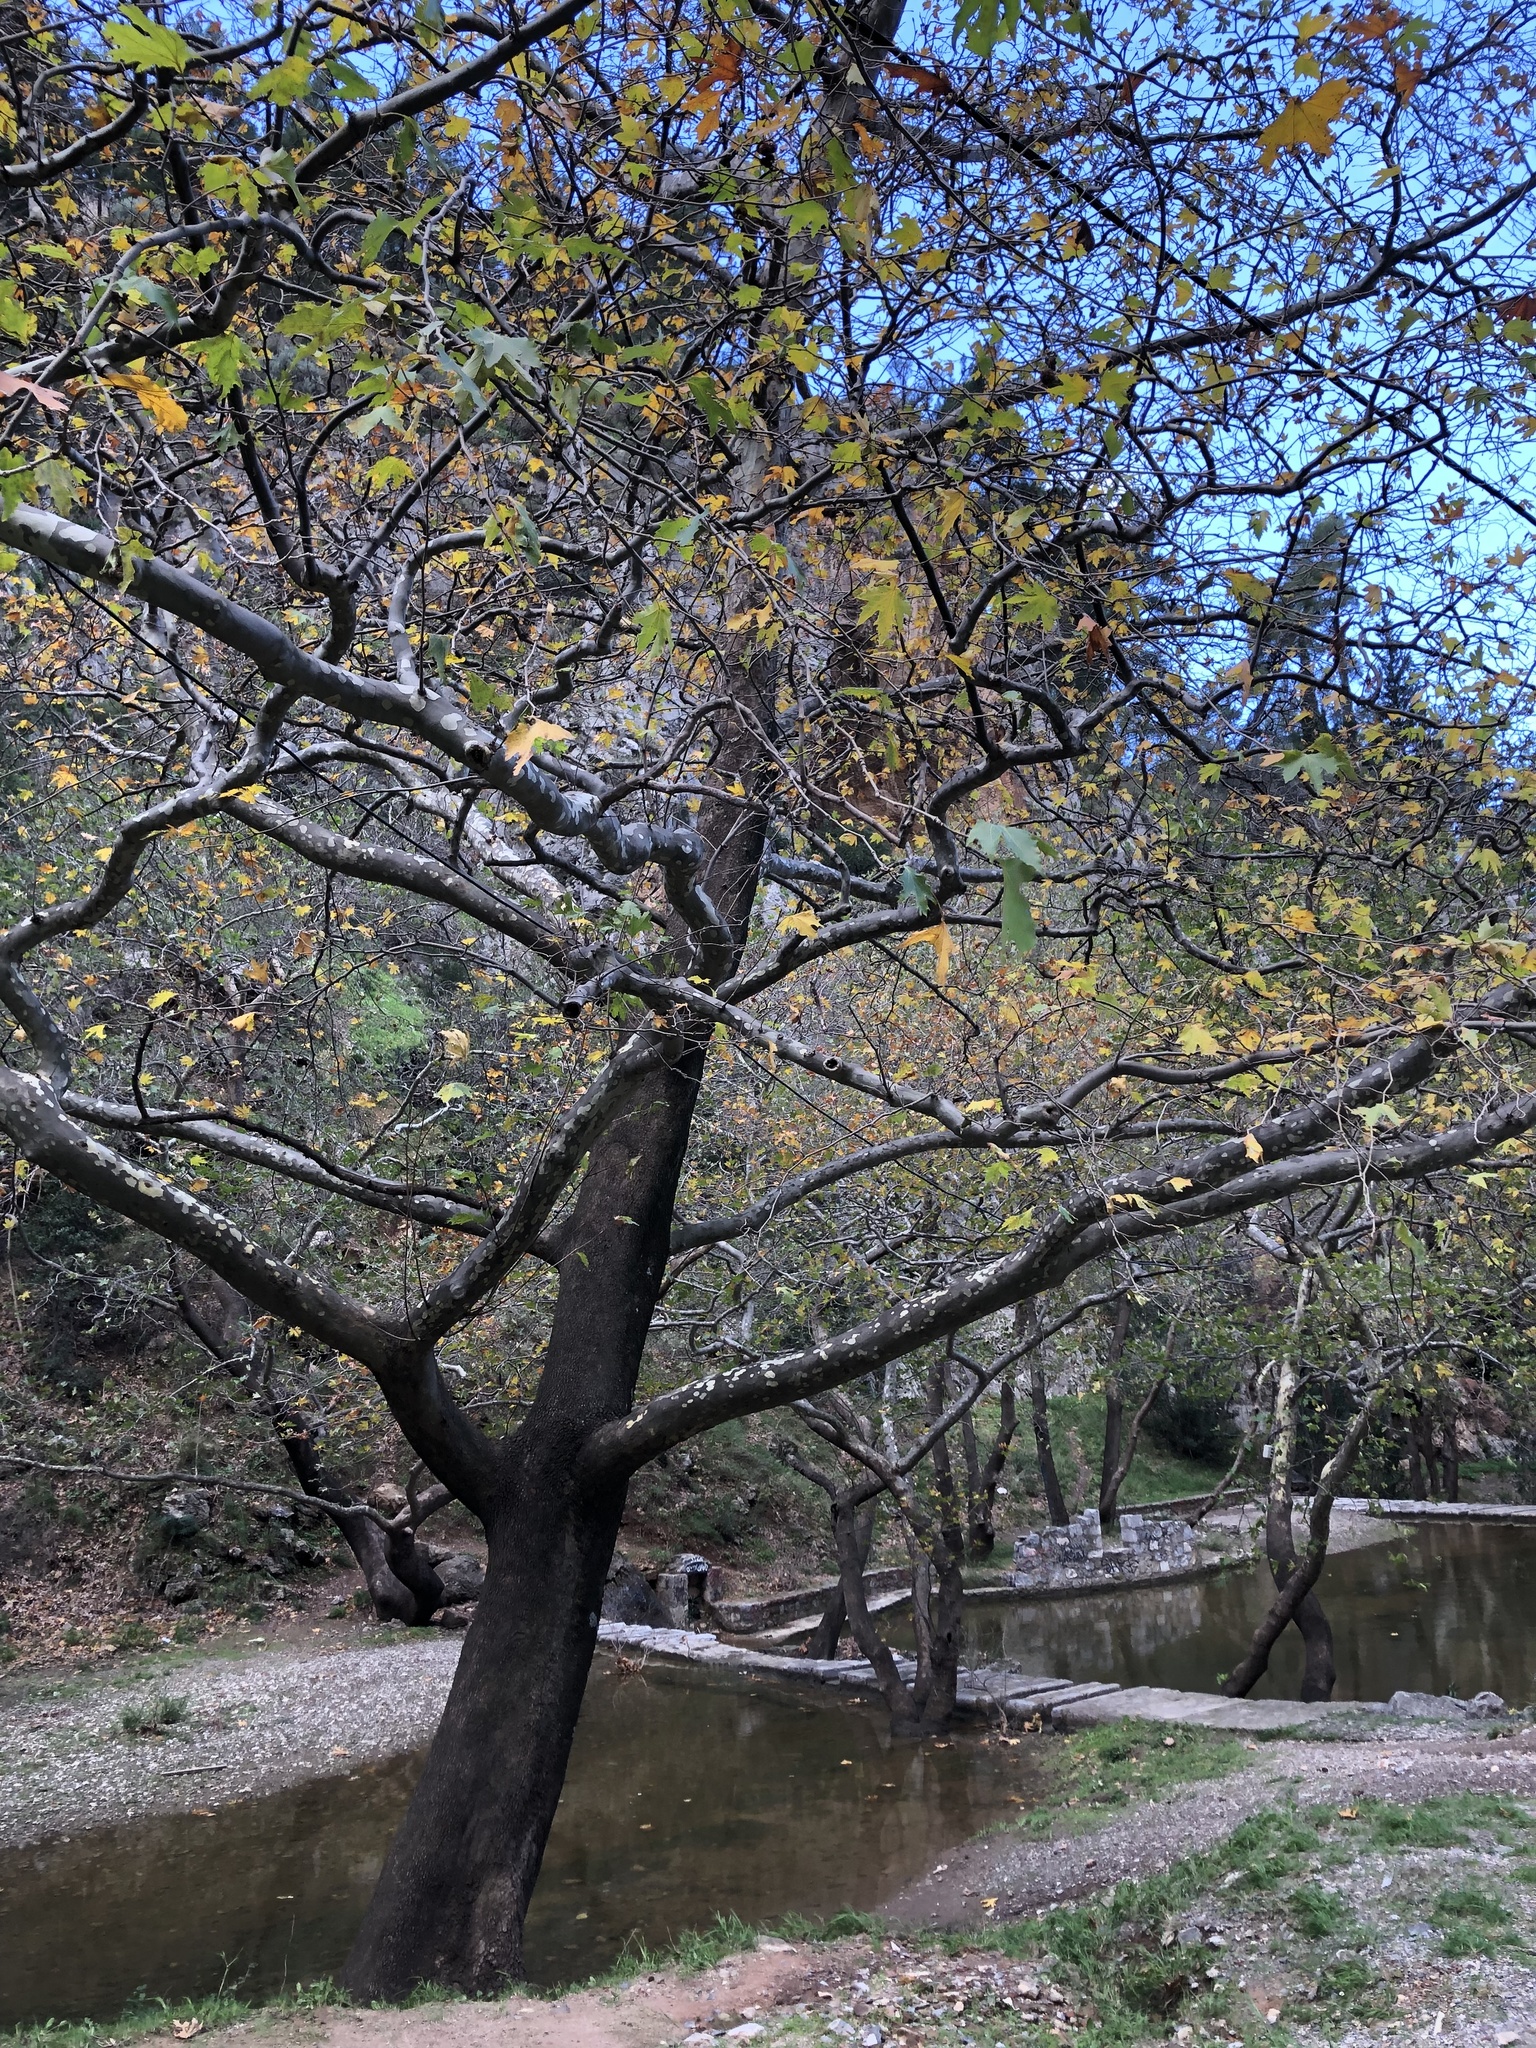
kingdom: Plantae
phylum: Tracheophyta
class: Magnoliopsida
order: Proteales
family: Platanaceae
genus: Platanus
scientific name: Platanus orientalis
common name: Oriental plane
